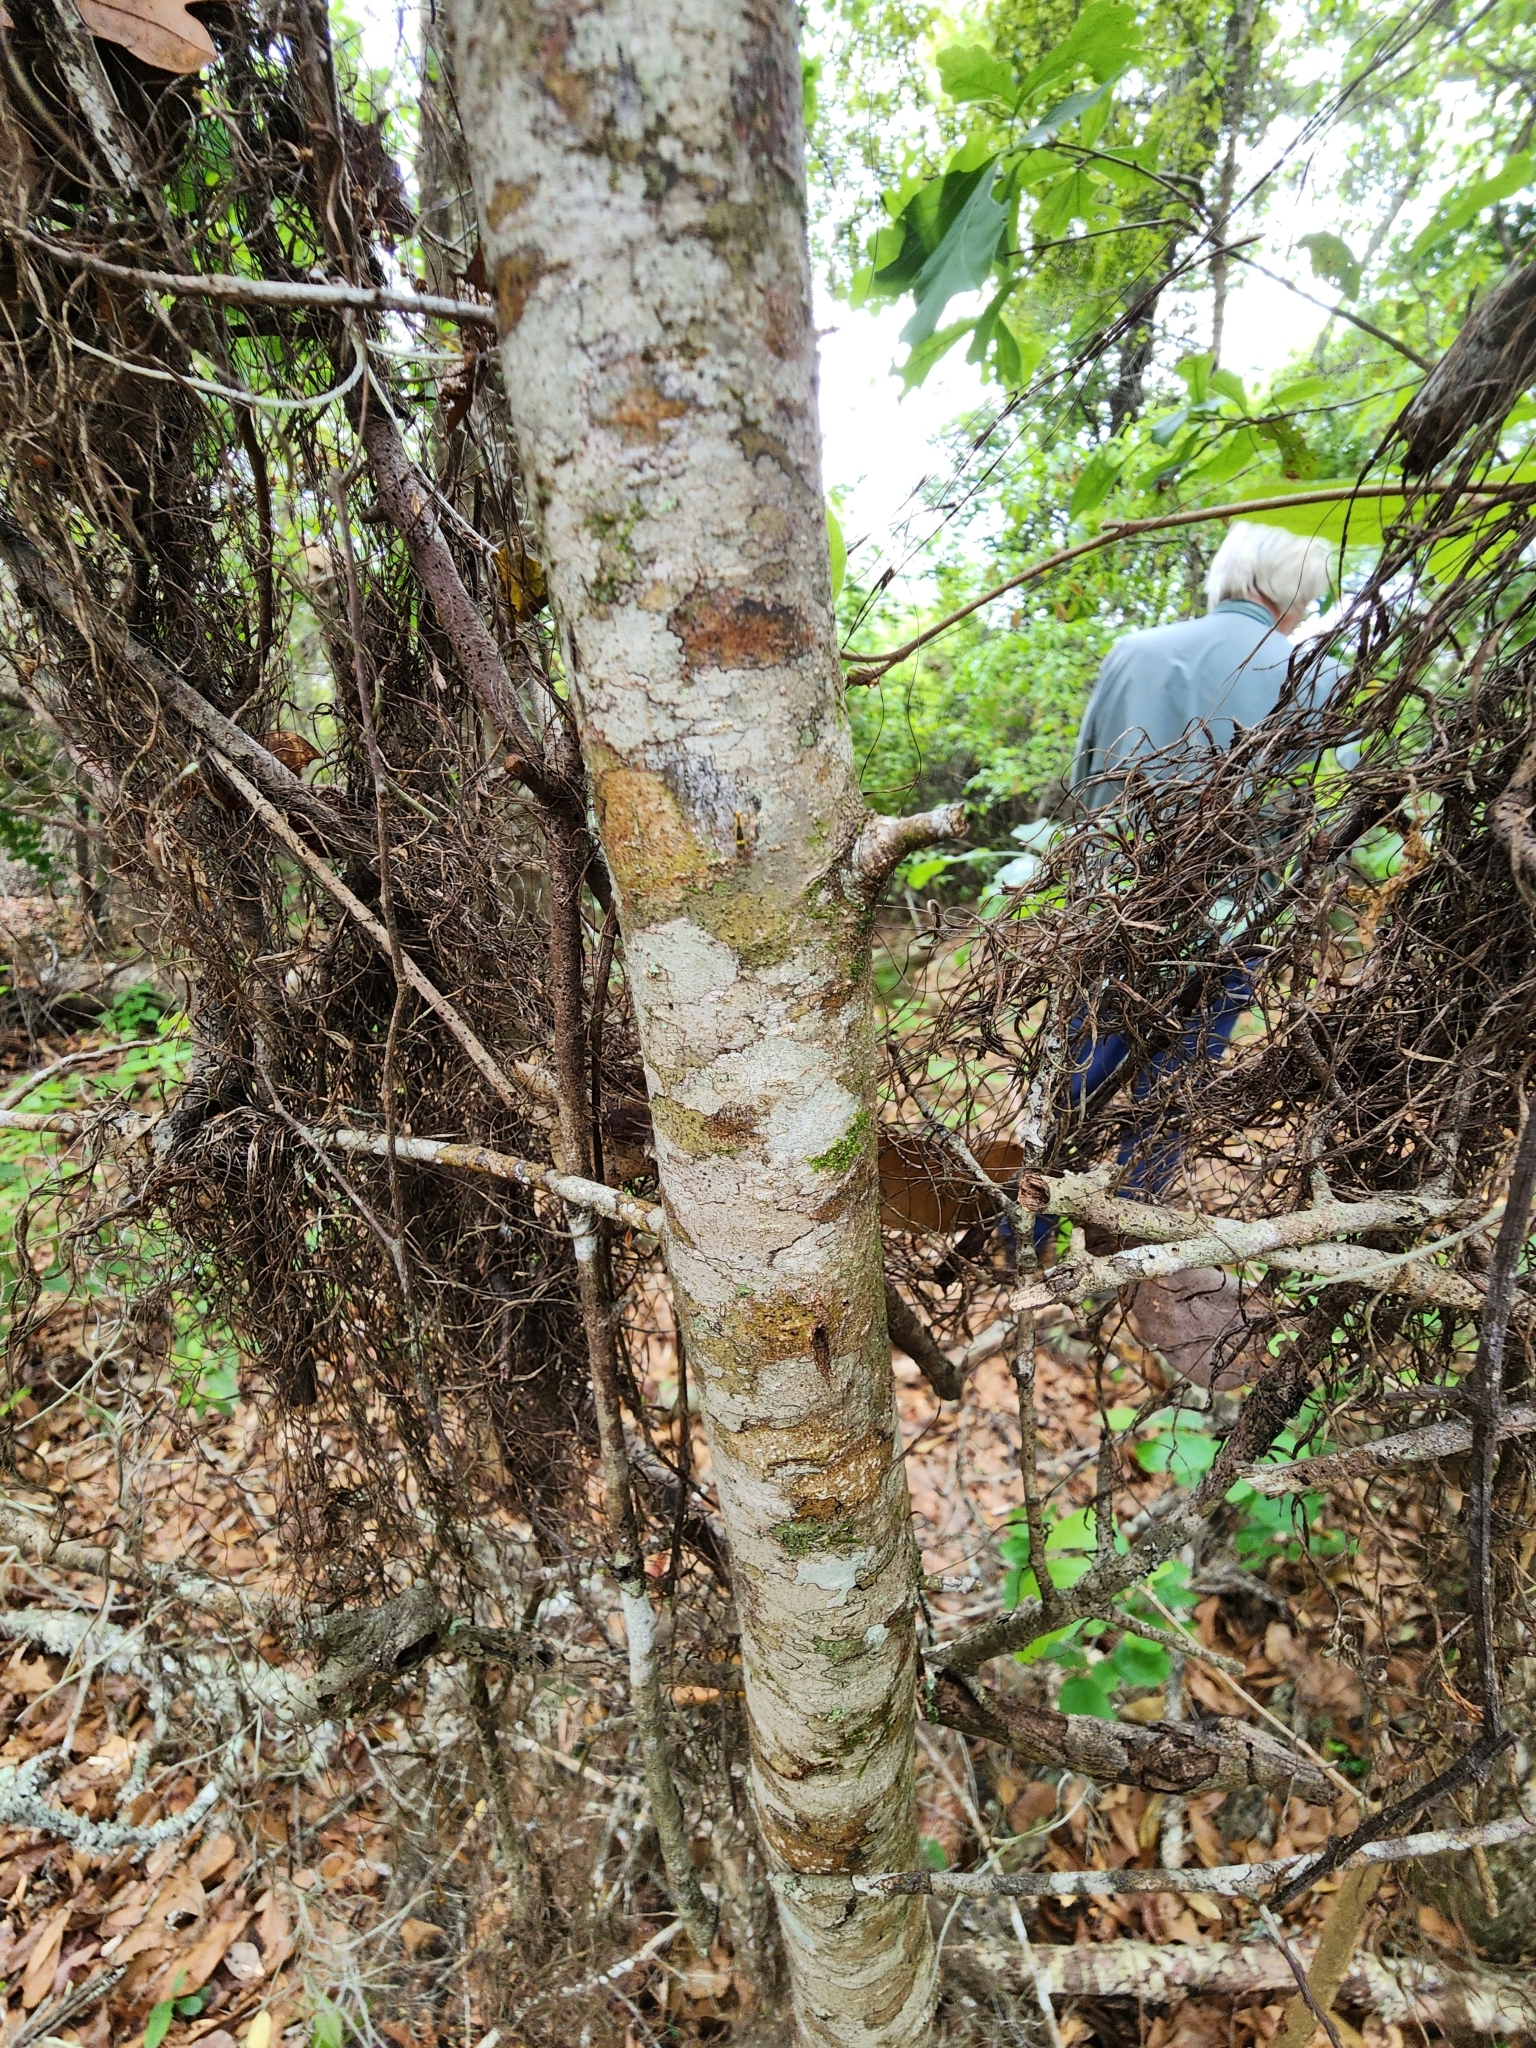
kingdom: Plantae
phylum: Tracheophyta
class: Magnoliopsida
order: Saxifragales
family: Hamamelidaceae
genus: Hamamelis
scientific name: Hamamelis virginiana
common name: Witch-hazel
